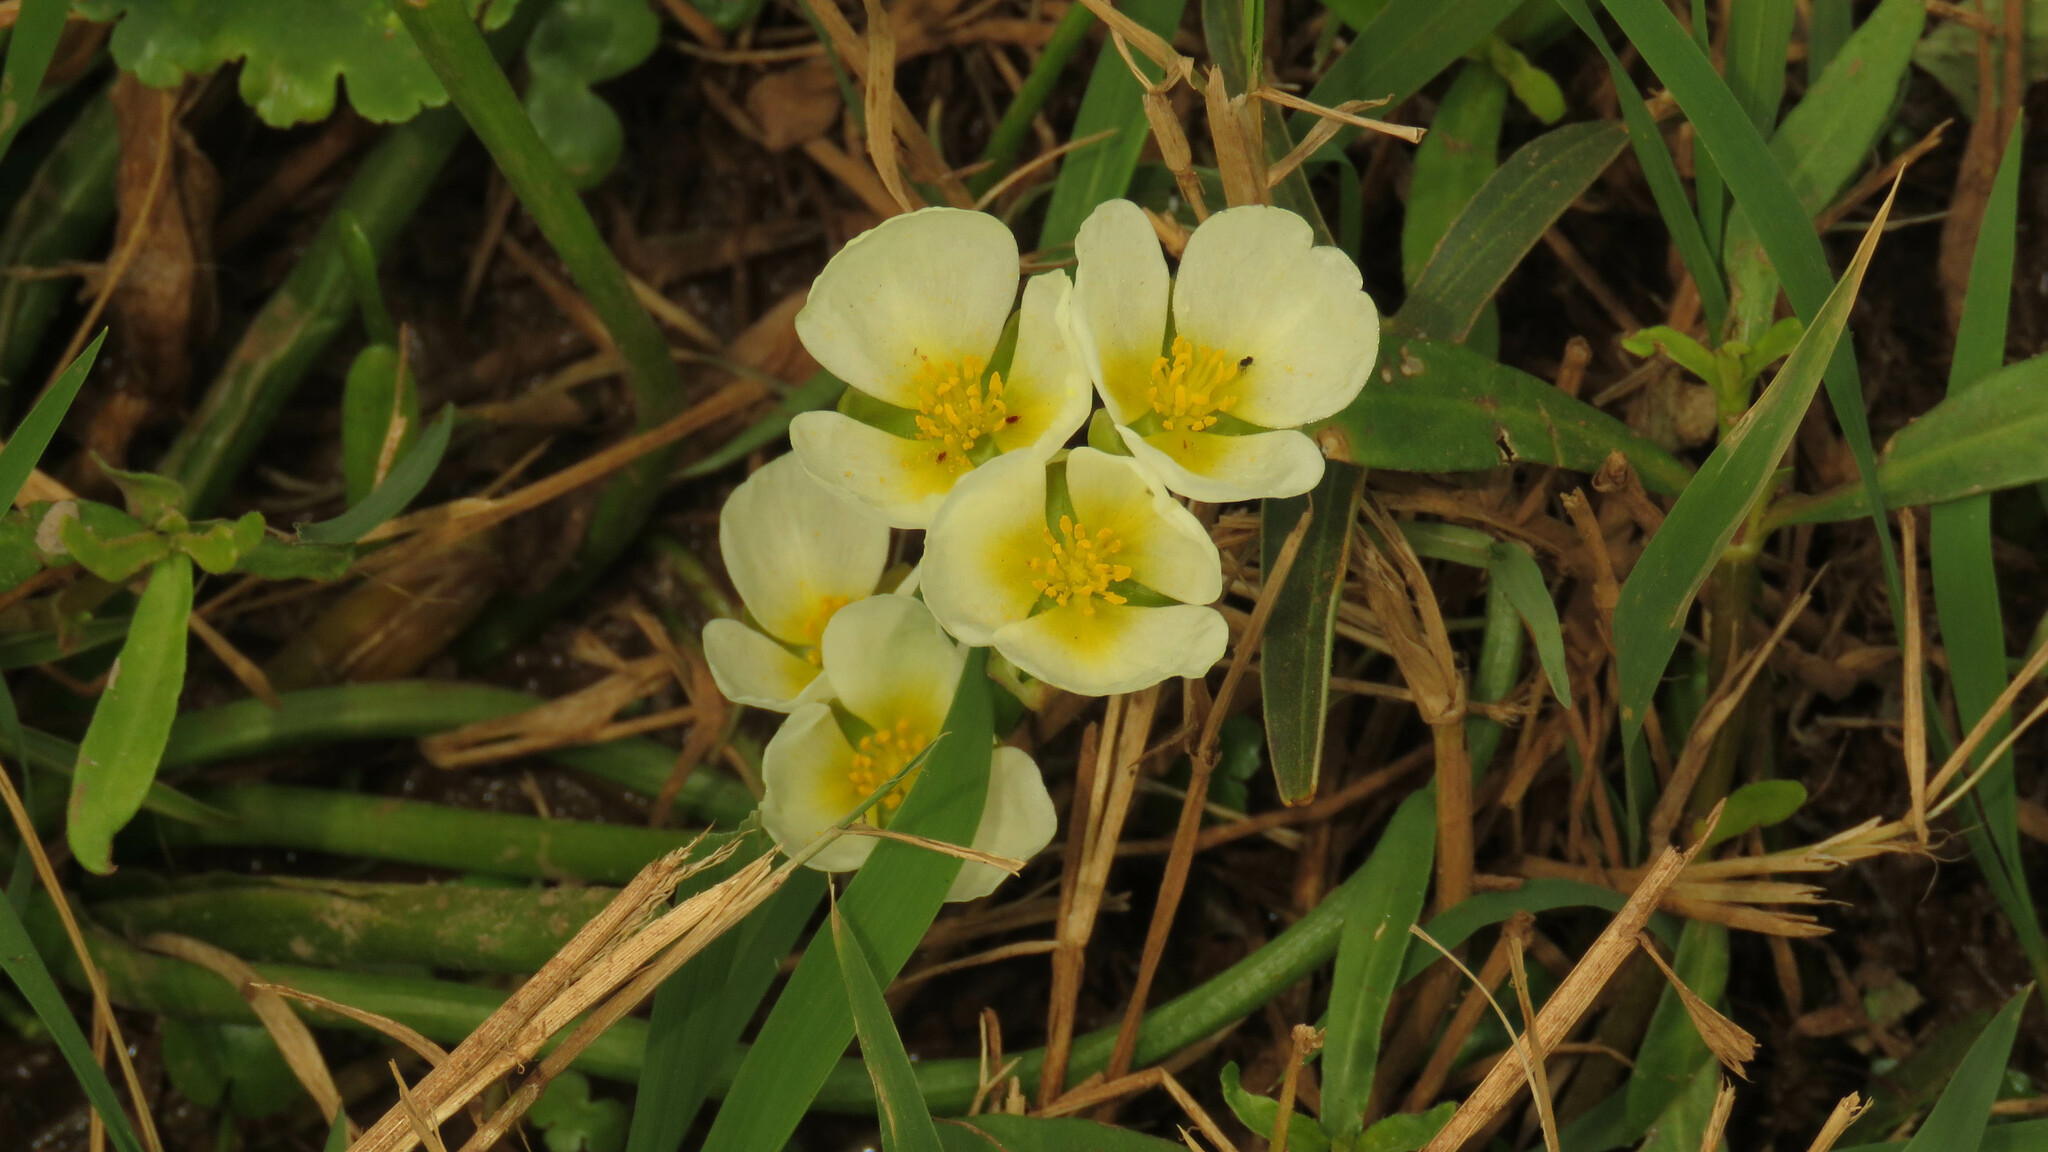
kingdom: Plantae
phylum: Tracheophyta
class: Liliopsida
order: Alismatales
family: Alismataceae
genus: Sagittaria
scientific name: Sagittaria montevidensis
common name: Giant arrowhead
